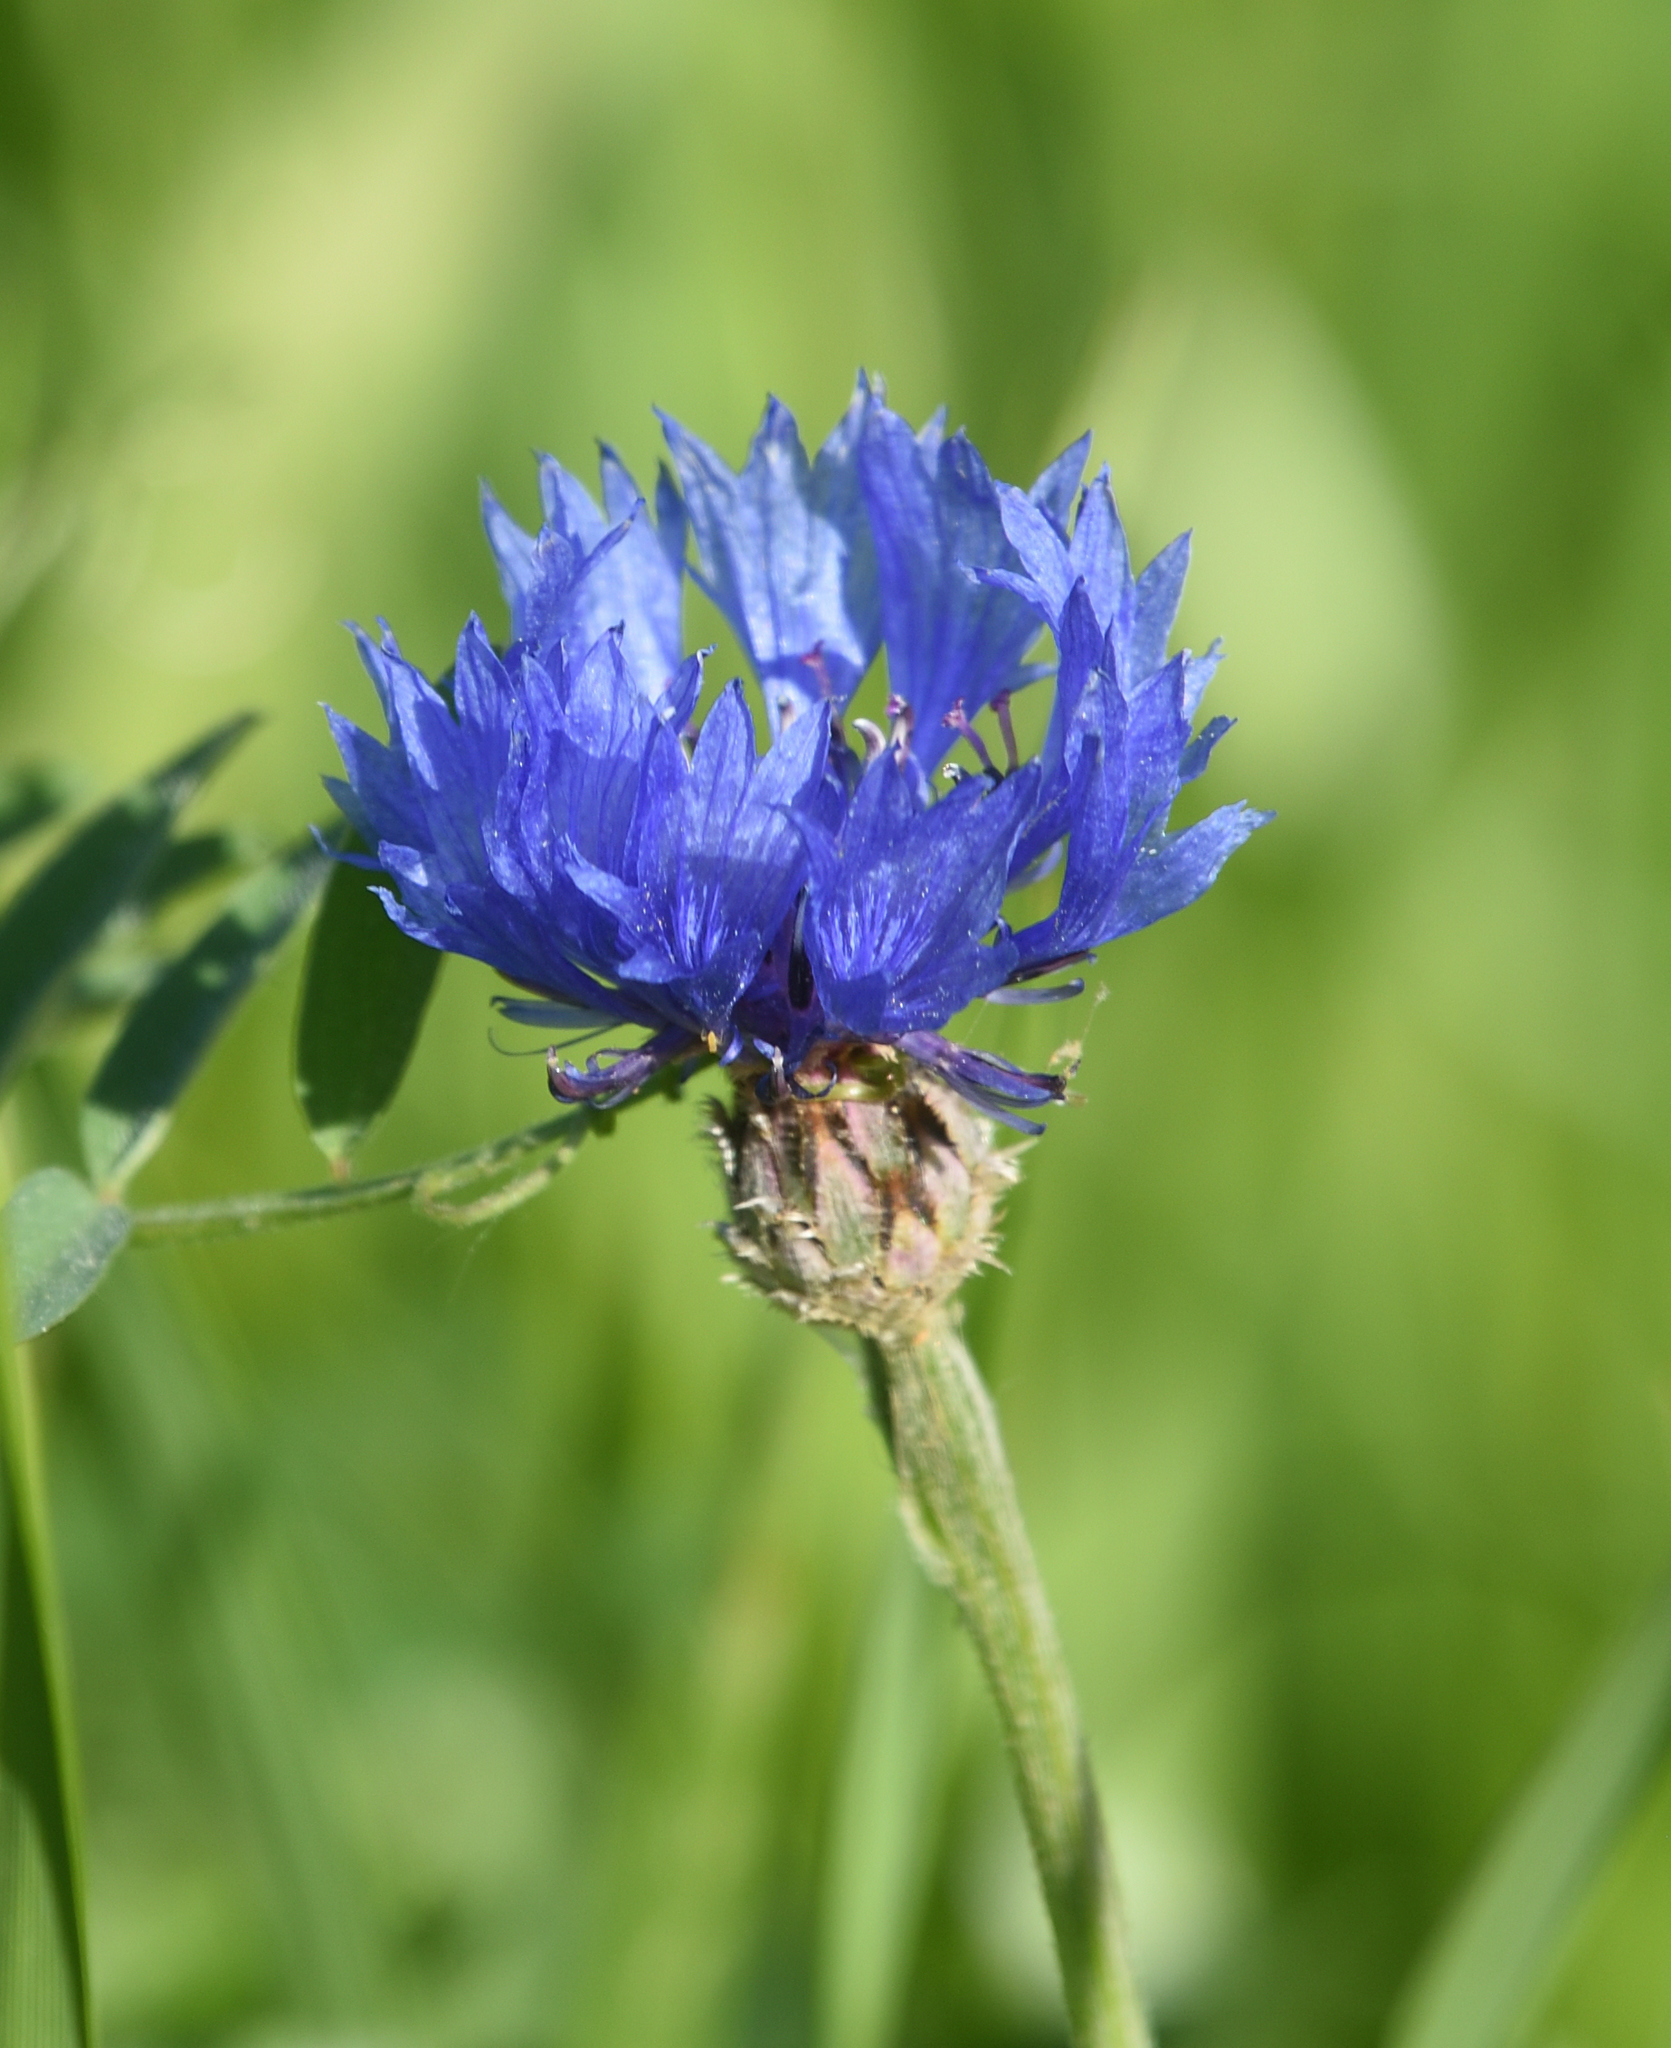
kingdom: Plantae
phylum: Tracheophyta
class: Magnoliopsida
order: Asterales
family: Asteraceae
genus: Centaurea
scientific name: Centaurea cyanus
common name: Cornflower
